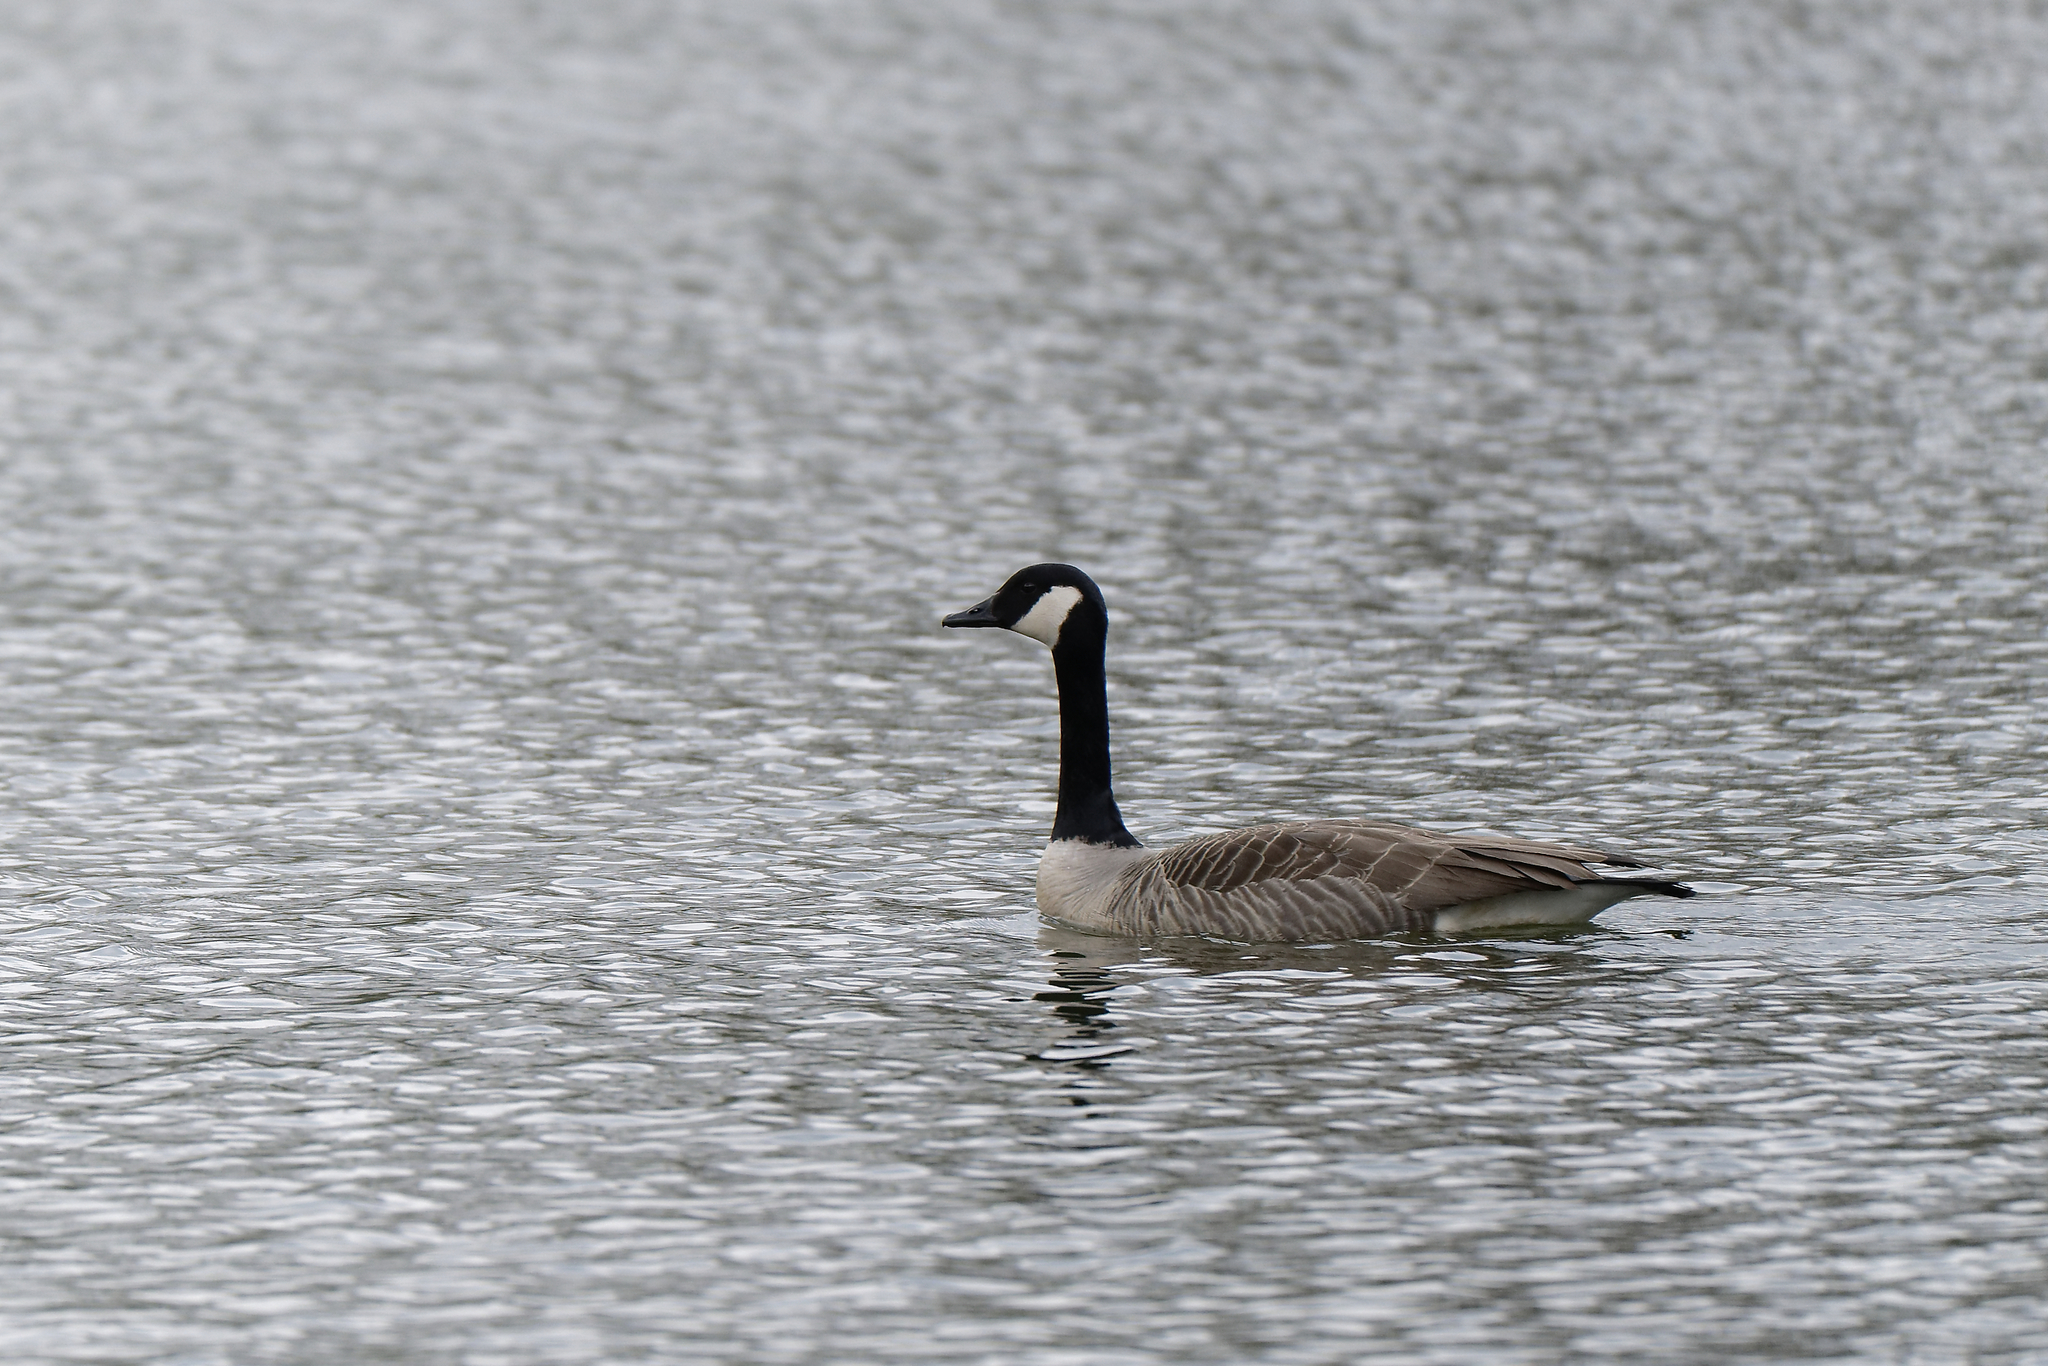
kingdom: Animalia
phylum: Chordata
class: Aves
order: Anseriformes
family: Anatidae
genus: Branta
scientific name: Branta canadensis
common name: Canada goose
